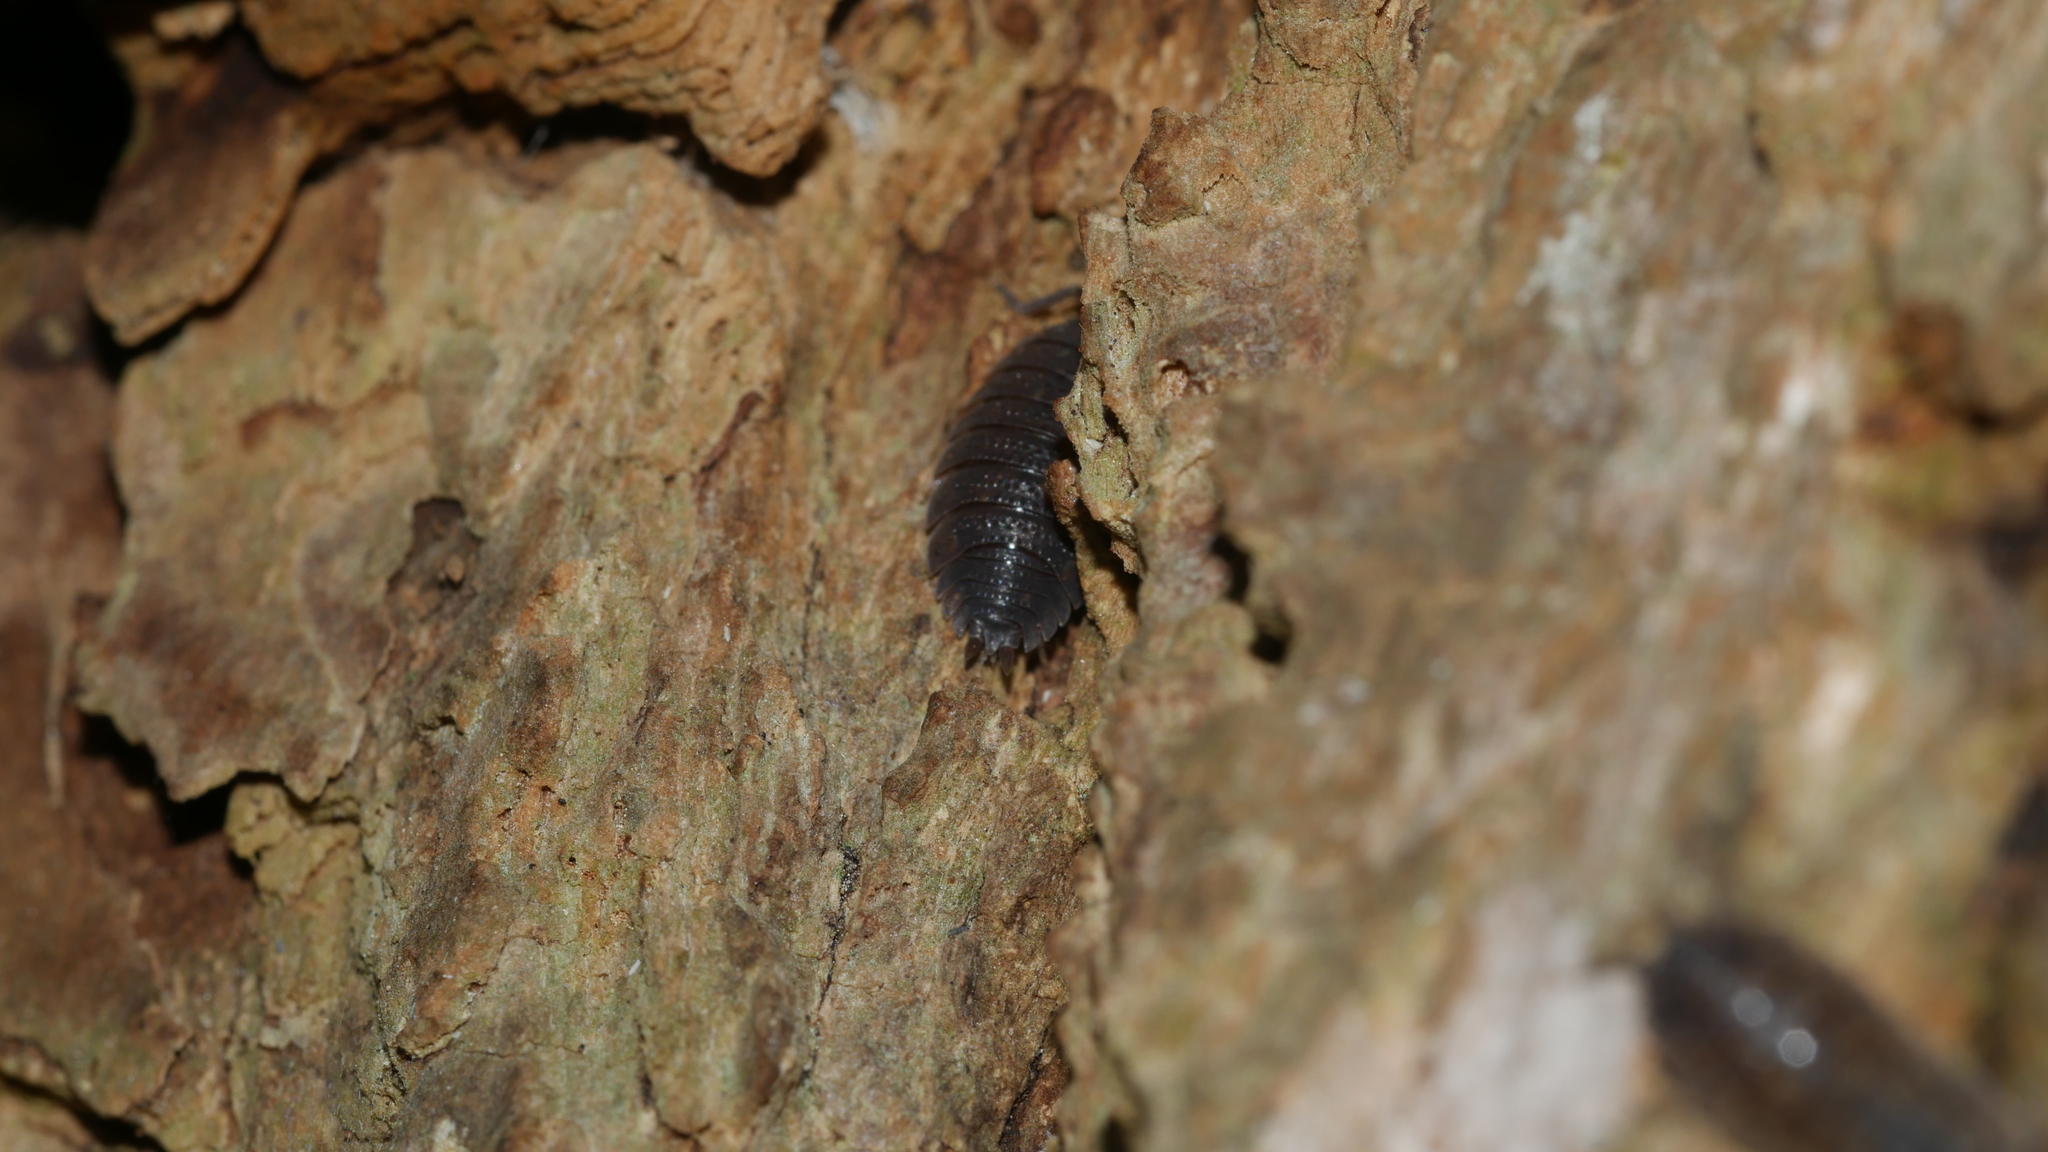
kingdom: Animalia
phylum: Arthropoda
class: Malacostraca
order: Isopoda
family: Porcellionidae
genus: Porcellio
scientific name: Porcellio scaber
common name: Common rough woodlouse
